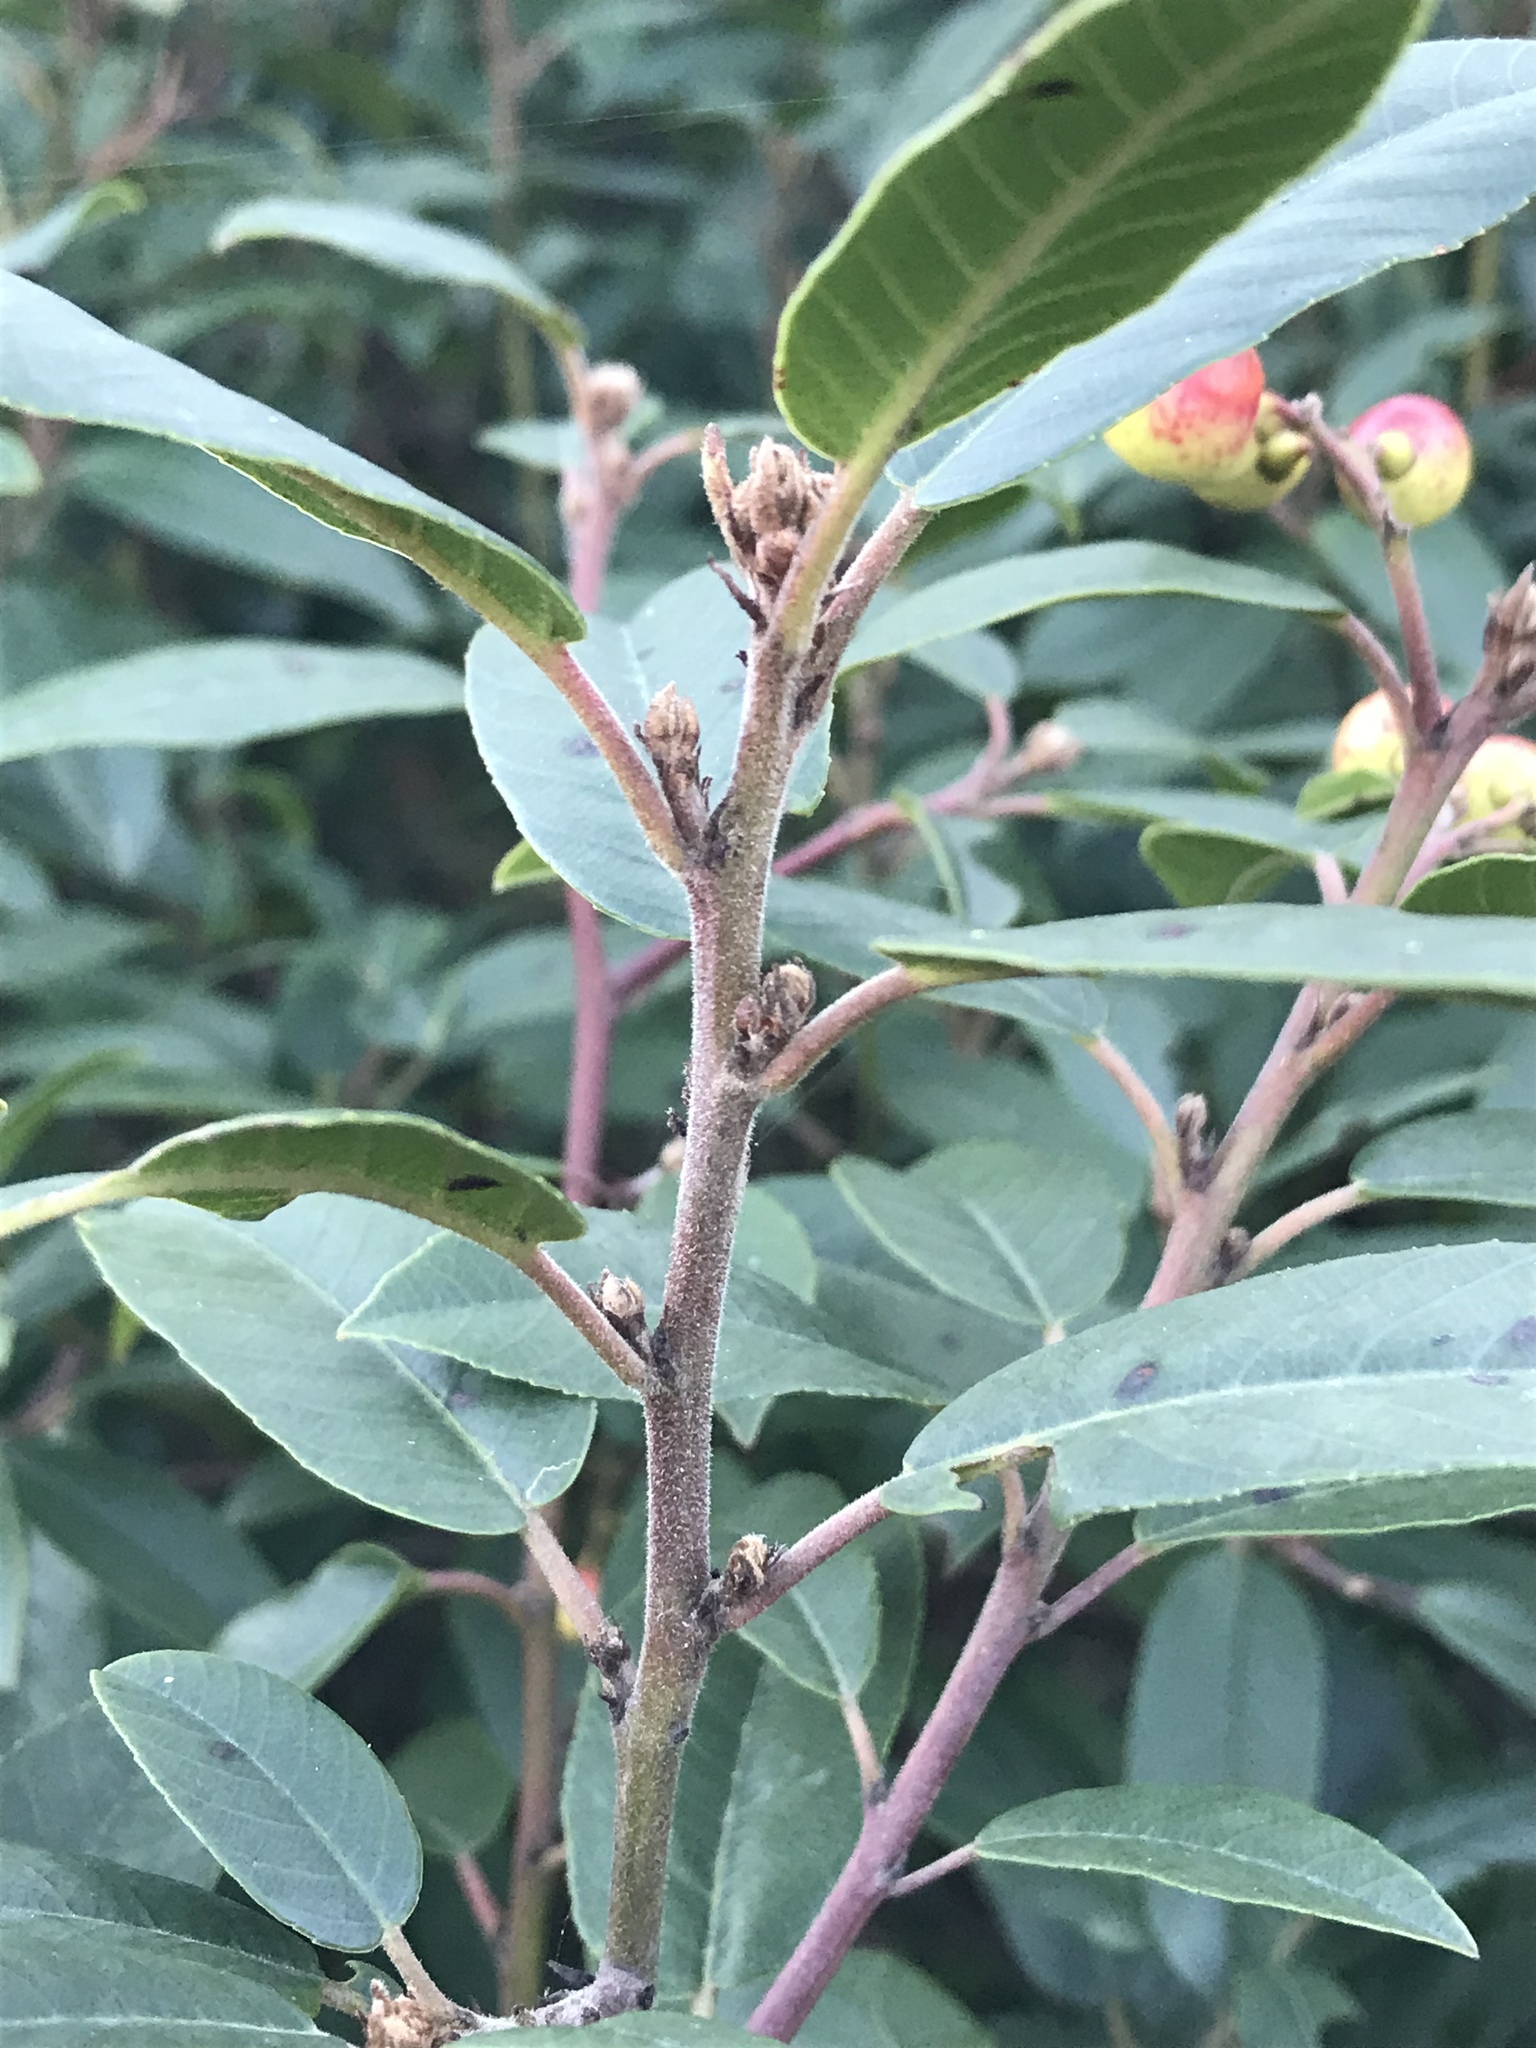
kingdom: Plantae
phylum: Tracheophyta
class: Magnoliopsida
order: Rosales
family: Rhamnaceae
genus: Frangula
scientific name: Frangula californica
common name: California buckthorn
